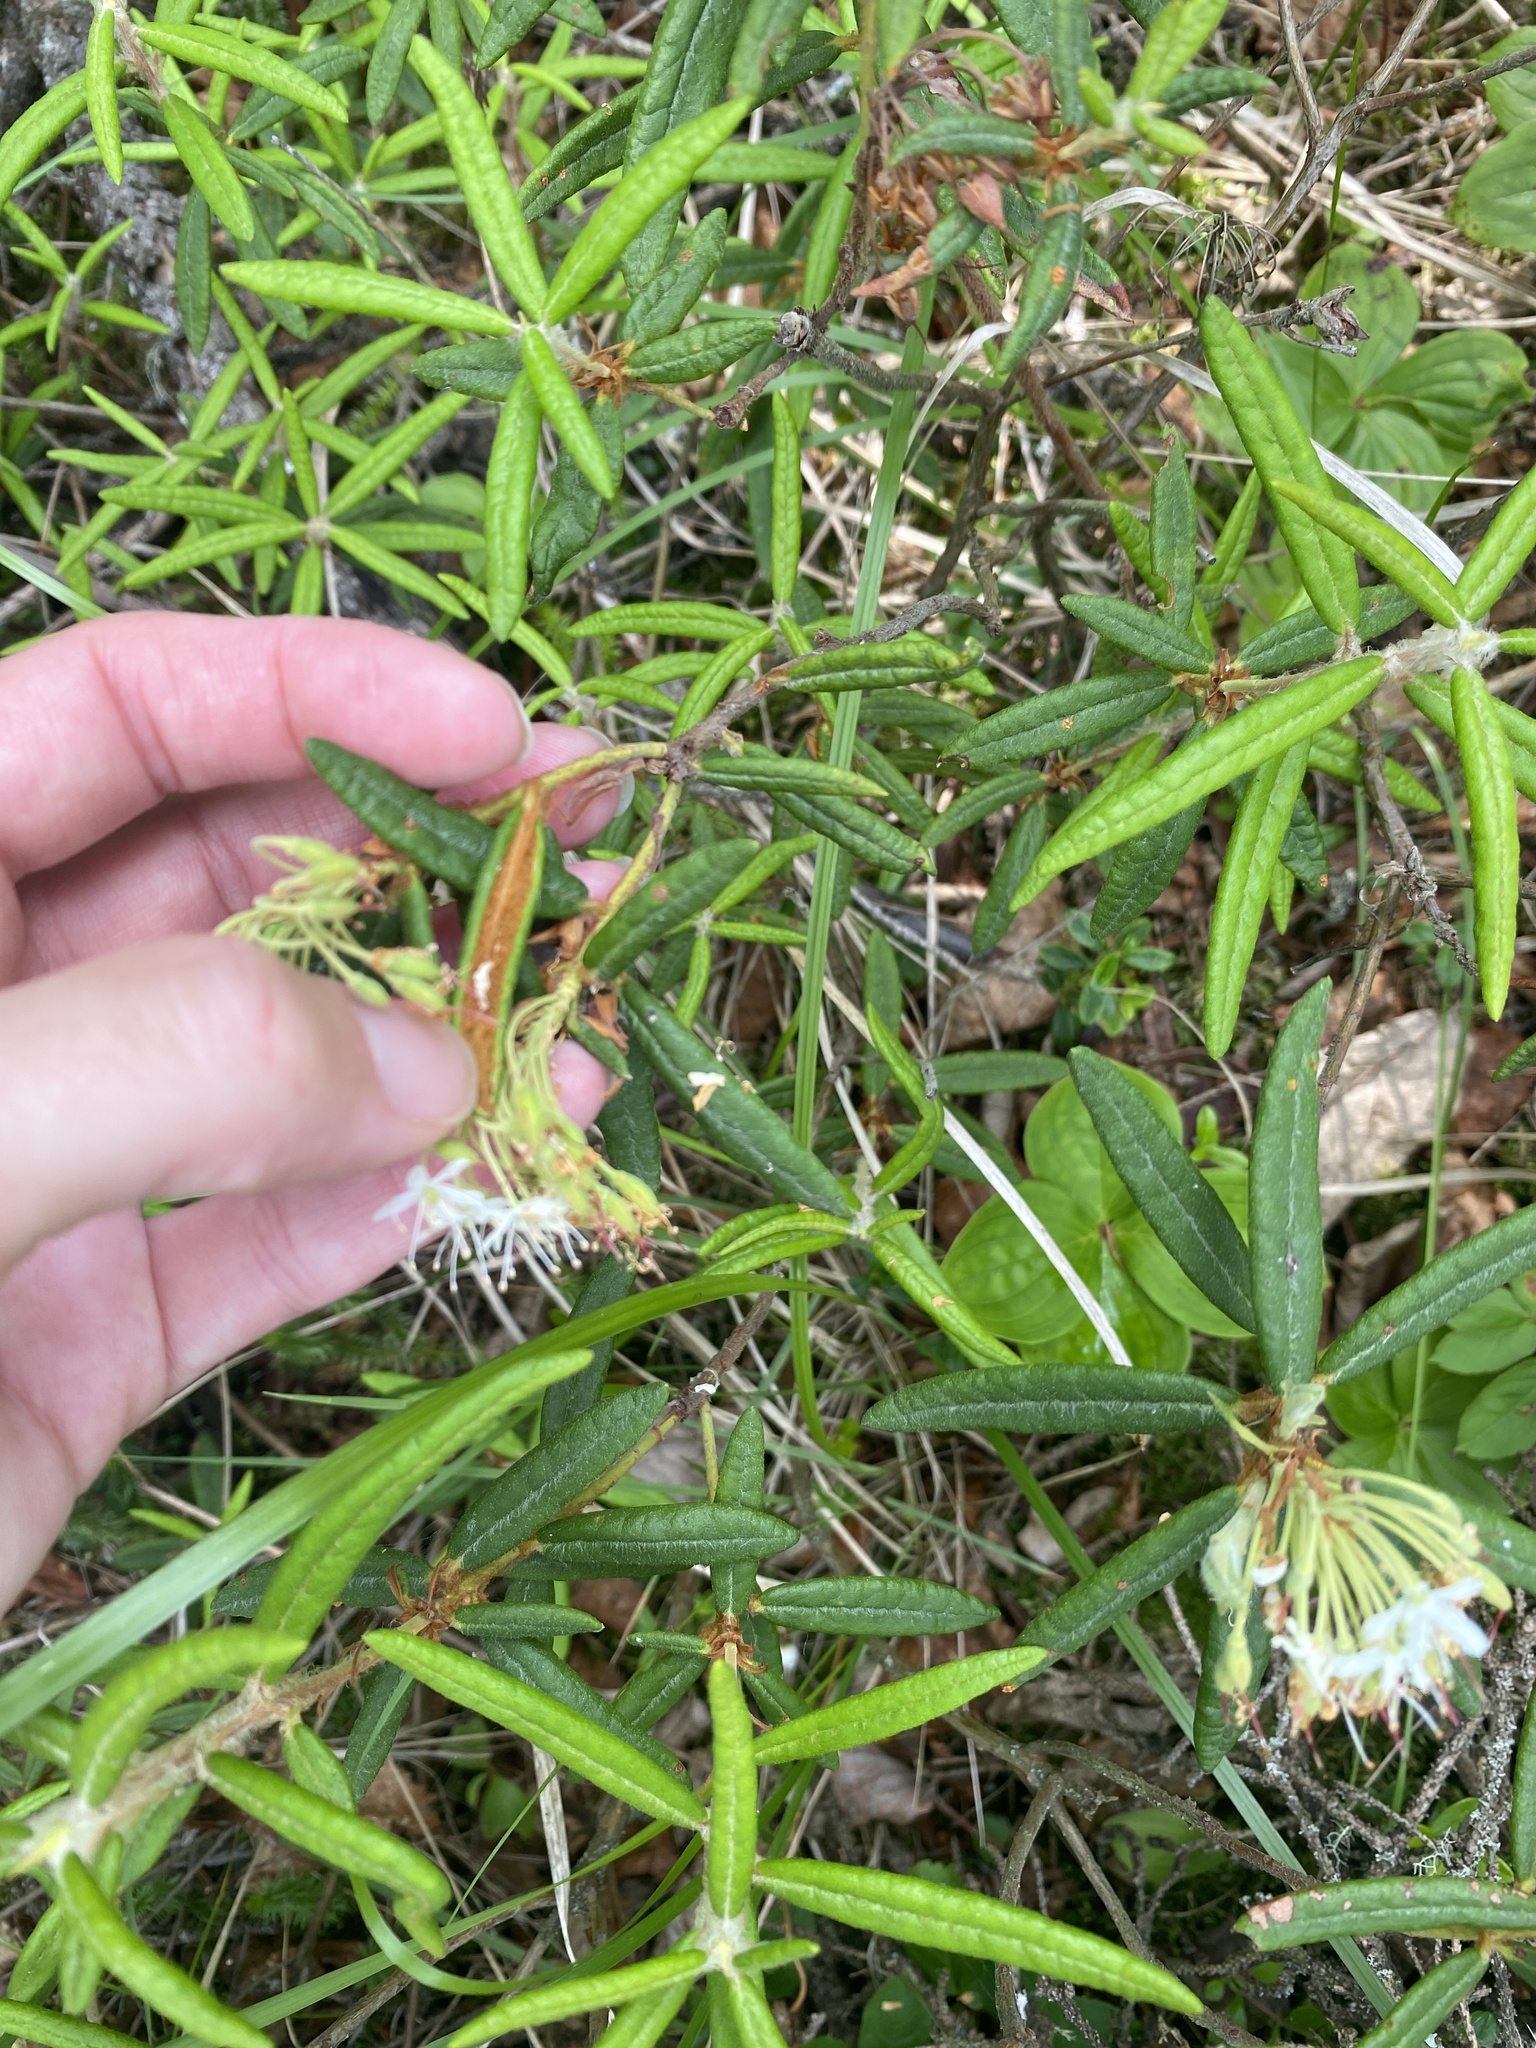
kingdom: Plantae
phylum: Tracheophyta
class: Magnoliopsida
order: Ericales
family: Ericaceae
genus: Rhododendron
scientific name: Rhododendron groenlandicum
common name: Bog labrador tea
